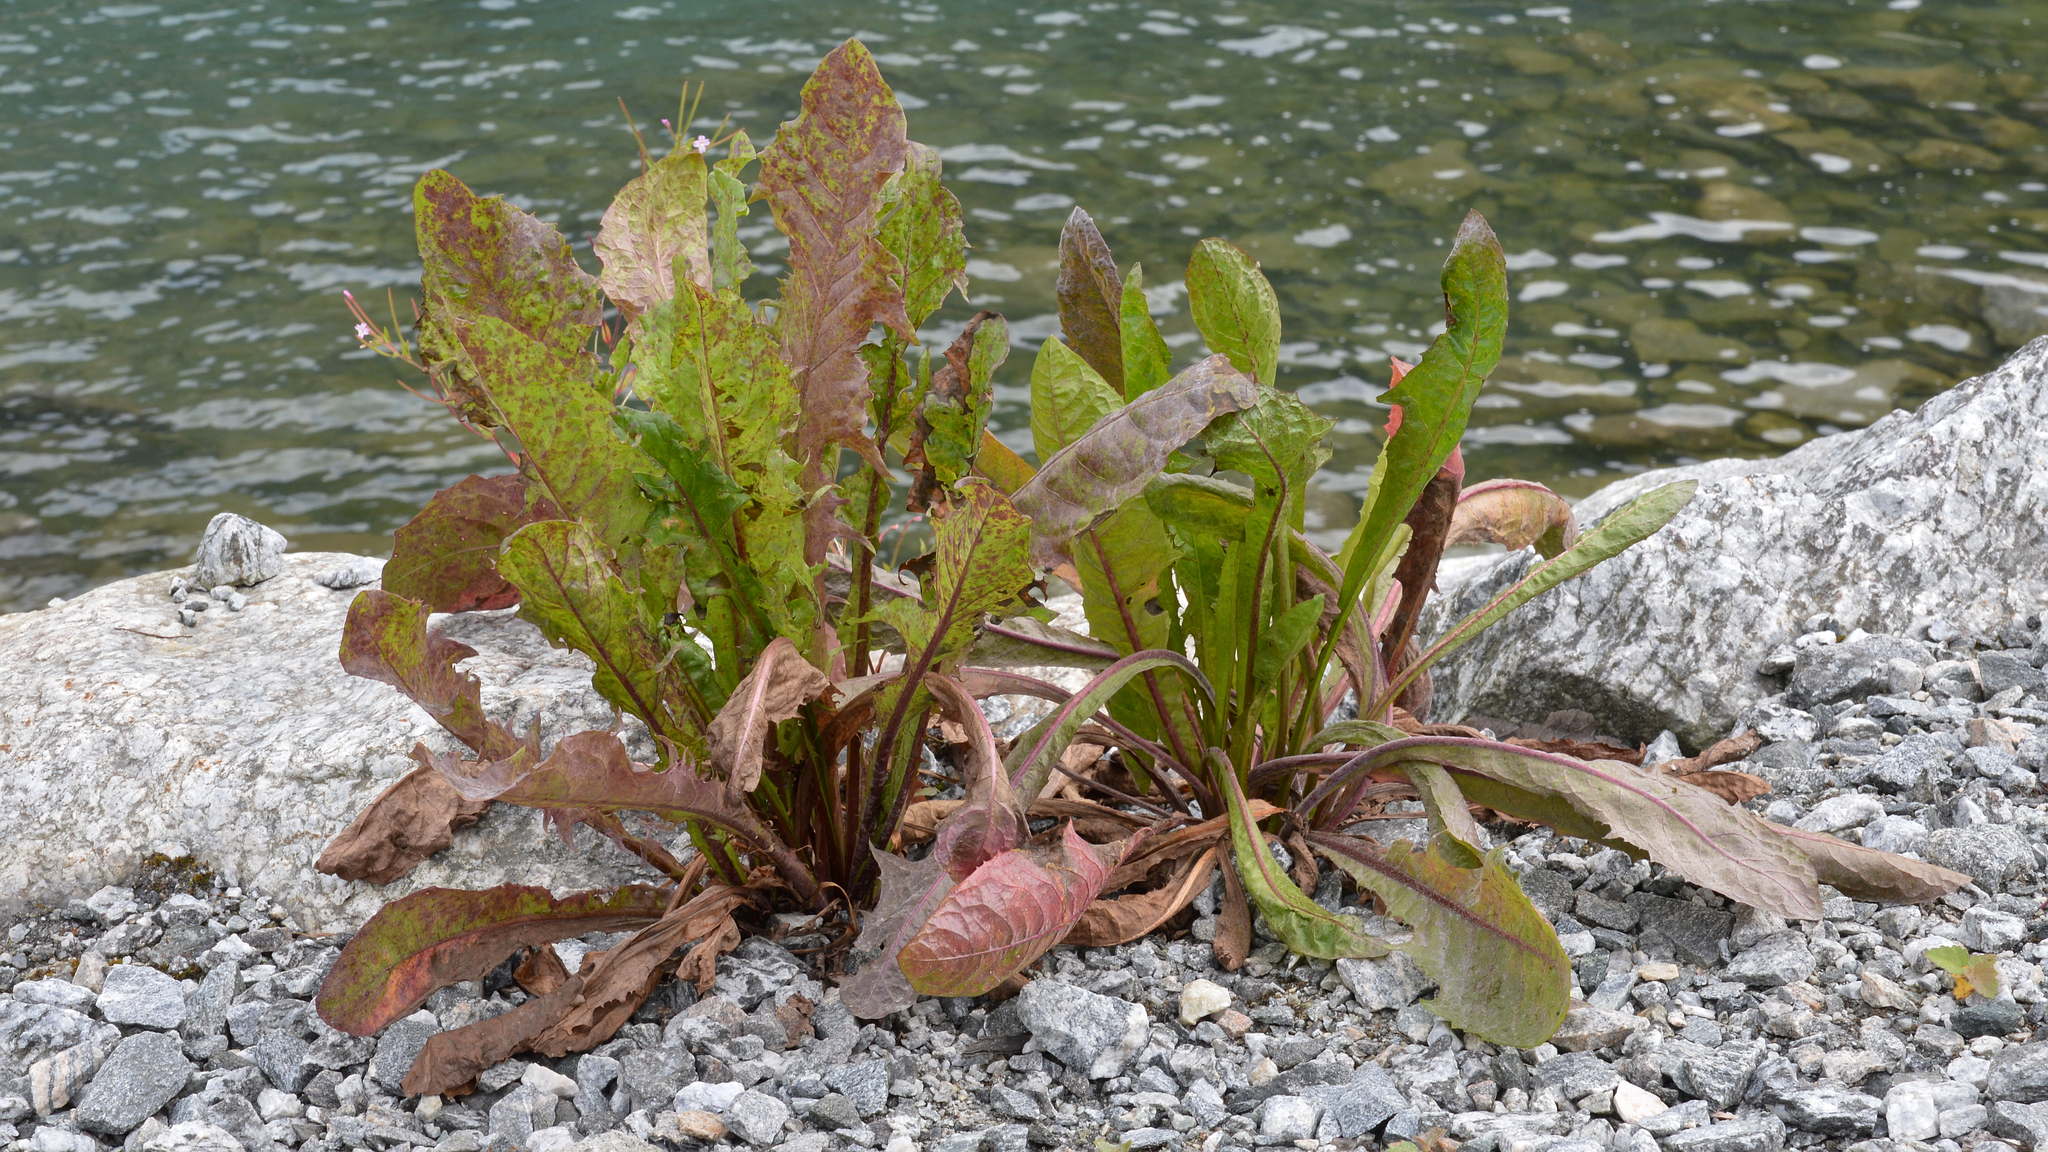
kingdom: Plantae
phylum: Tracheophyta
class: Magnoliopsida
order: Asterales
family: Asteraceae
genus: Taraxacum
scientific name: Taraxacum officinale
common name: Common dandelion
